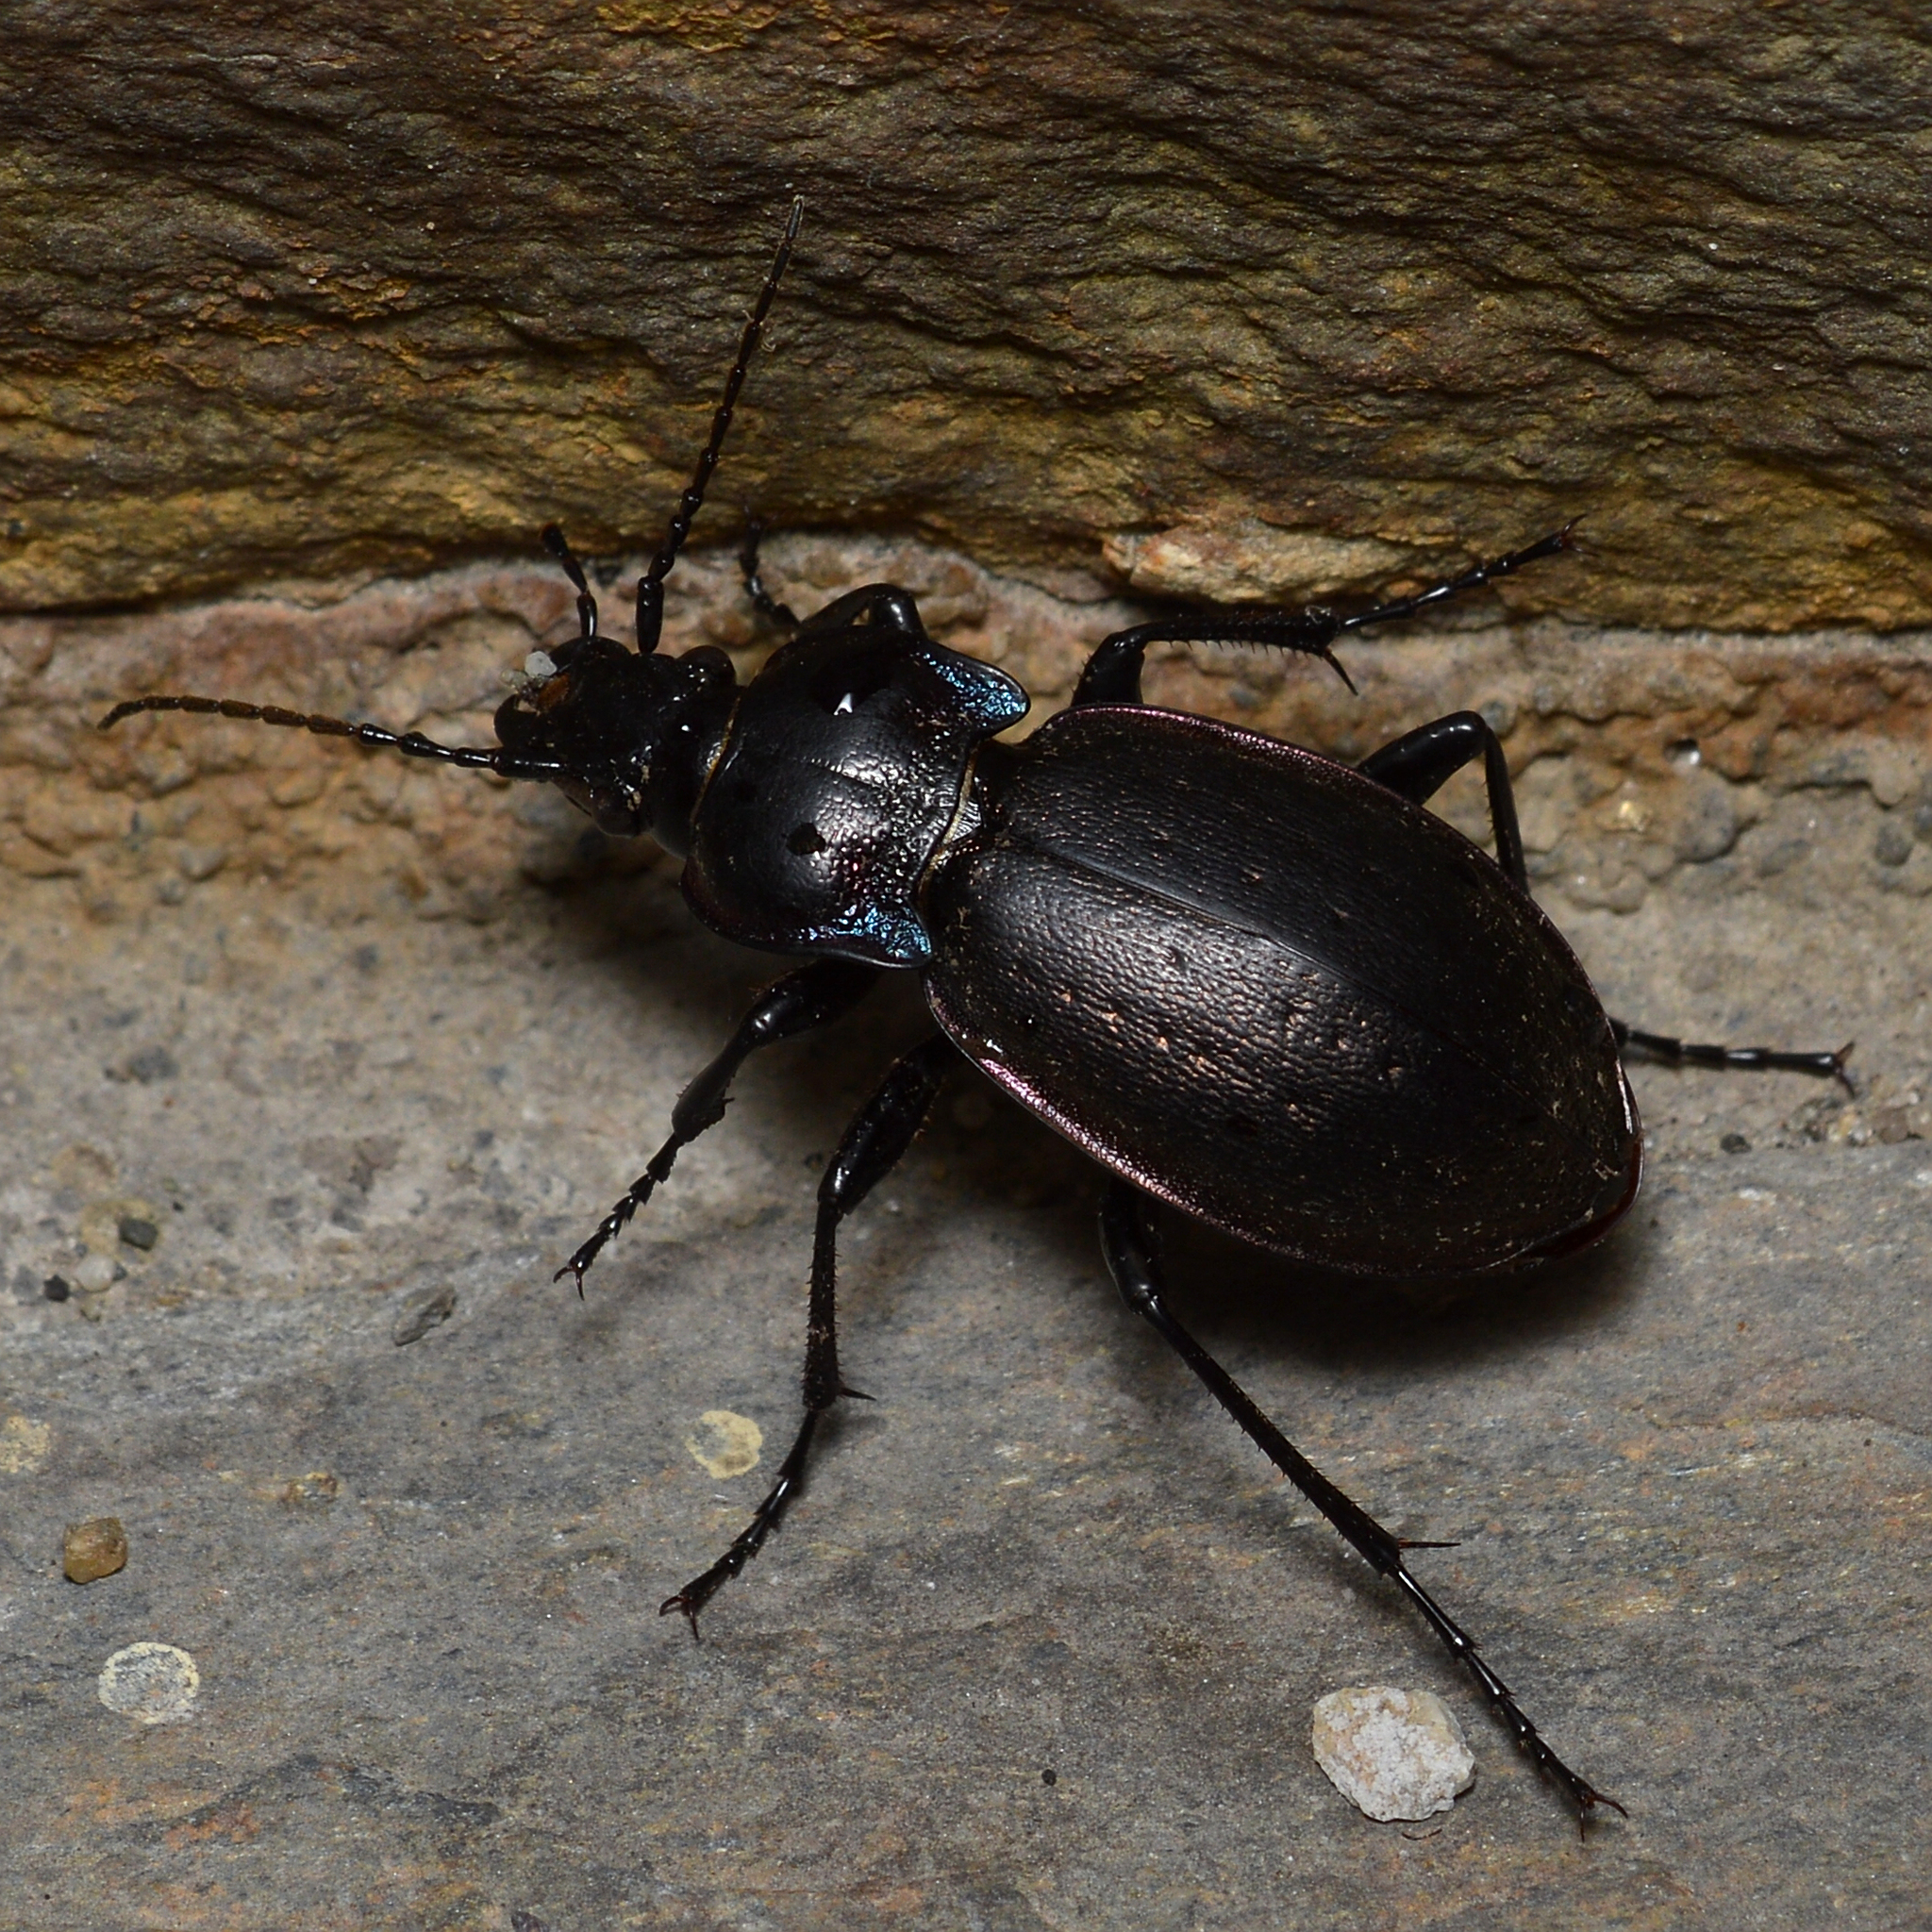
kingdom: Animalia
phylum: Arthropoda
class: Insecta
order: Coleoptera
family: Carabidae
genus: Carabus
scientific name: Carabus nemoralis
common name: European ground beetle
